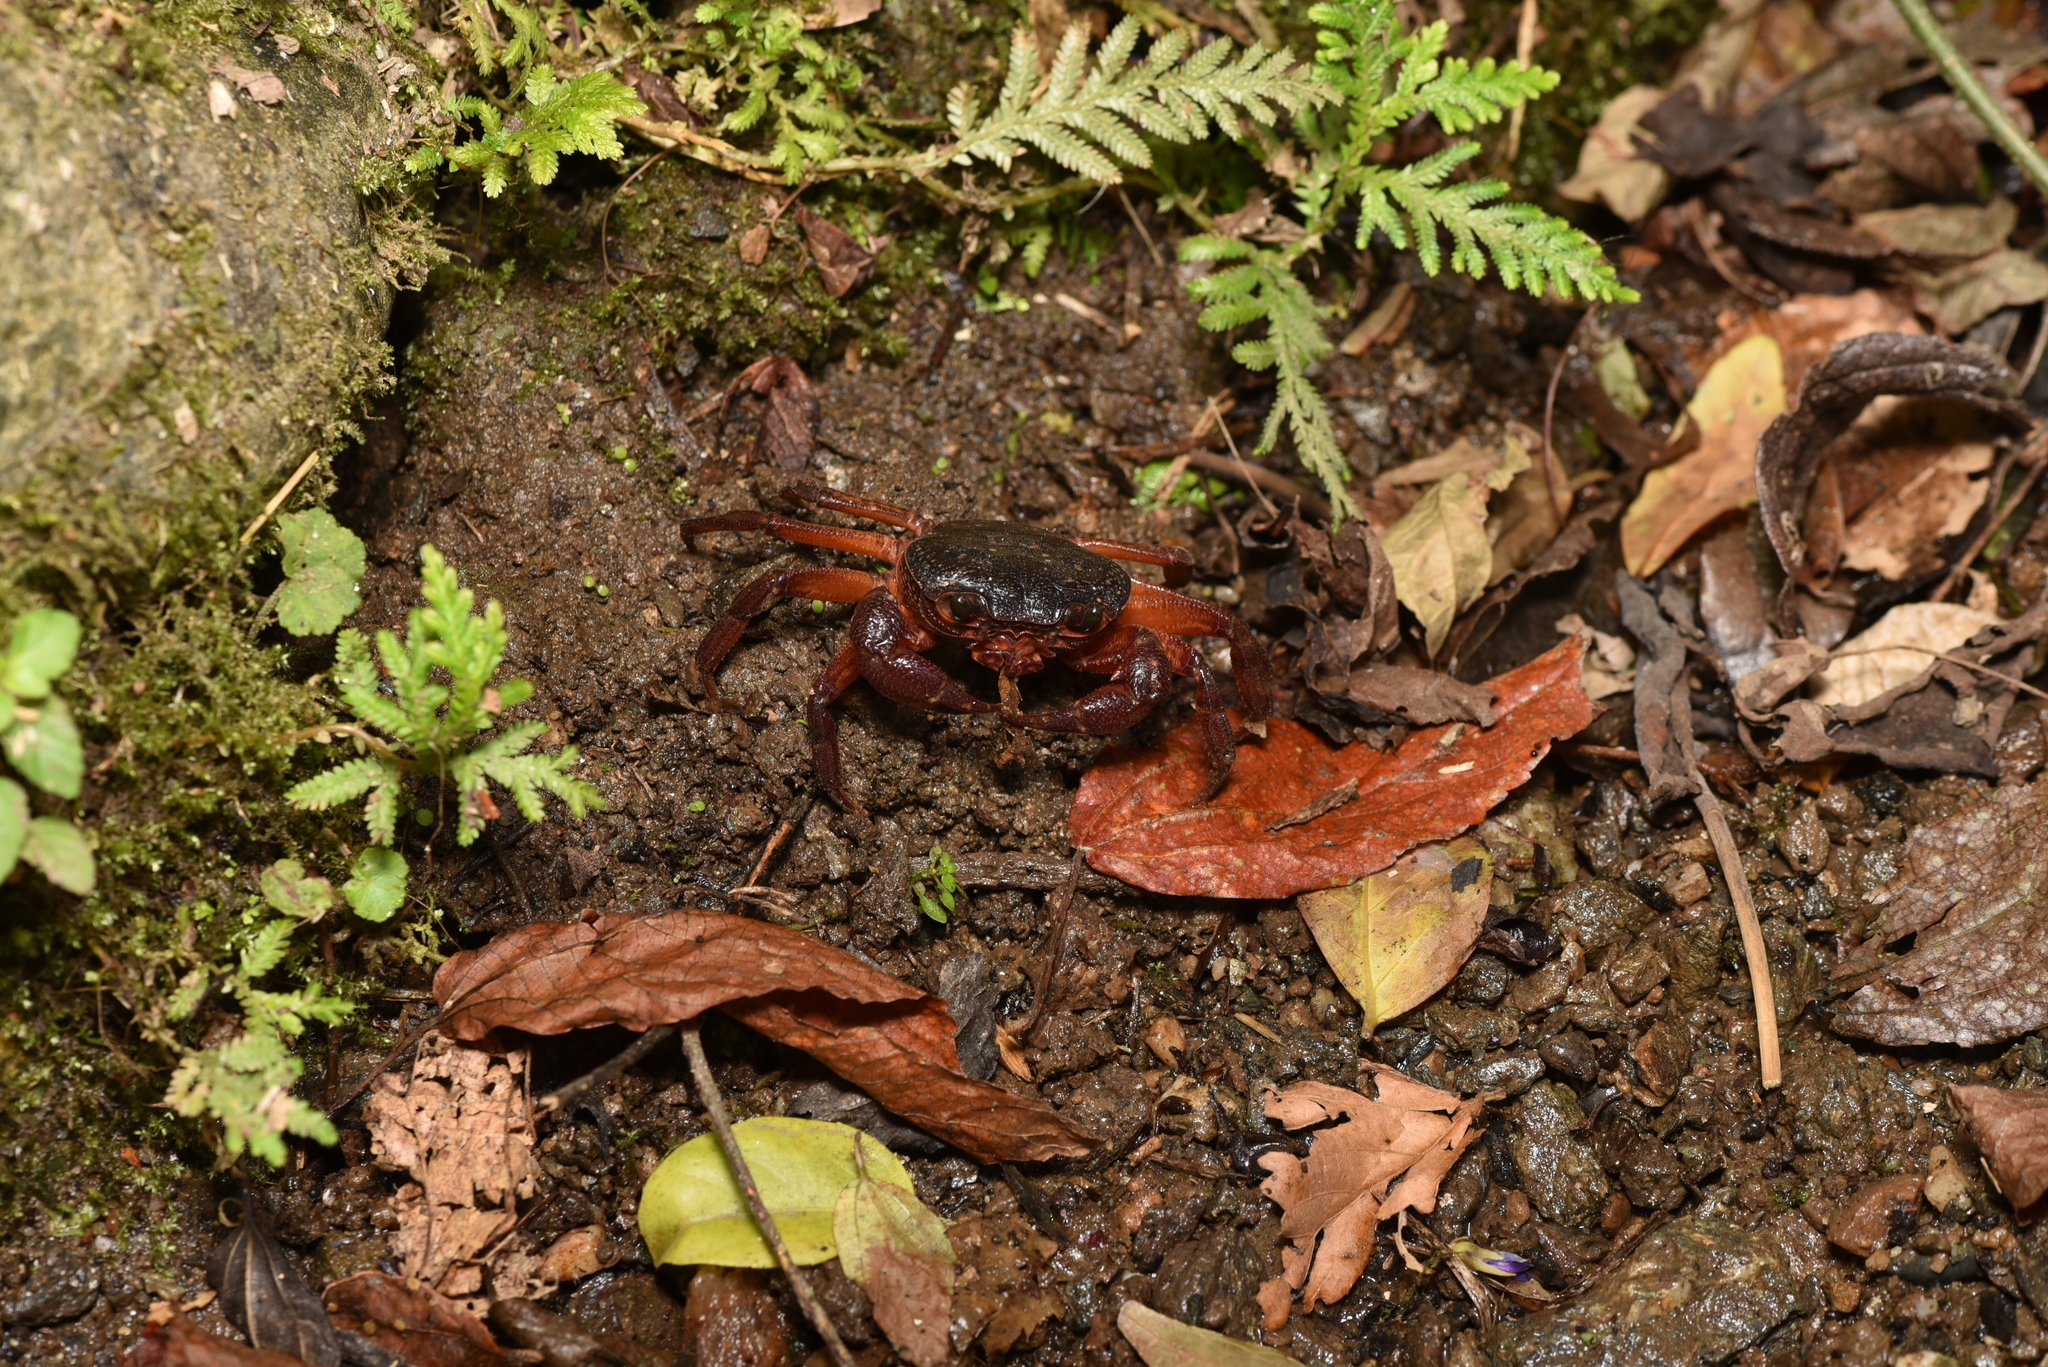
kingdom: Animalia
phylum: Arthropoda
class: Malacostraca
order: Decapoda
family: Potamidae
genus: Candidiopotamon
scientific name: Candidiopotamon
